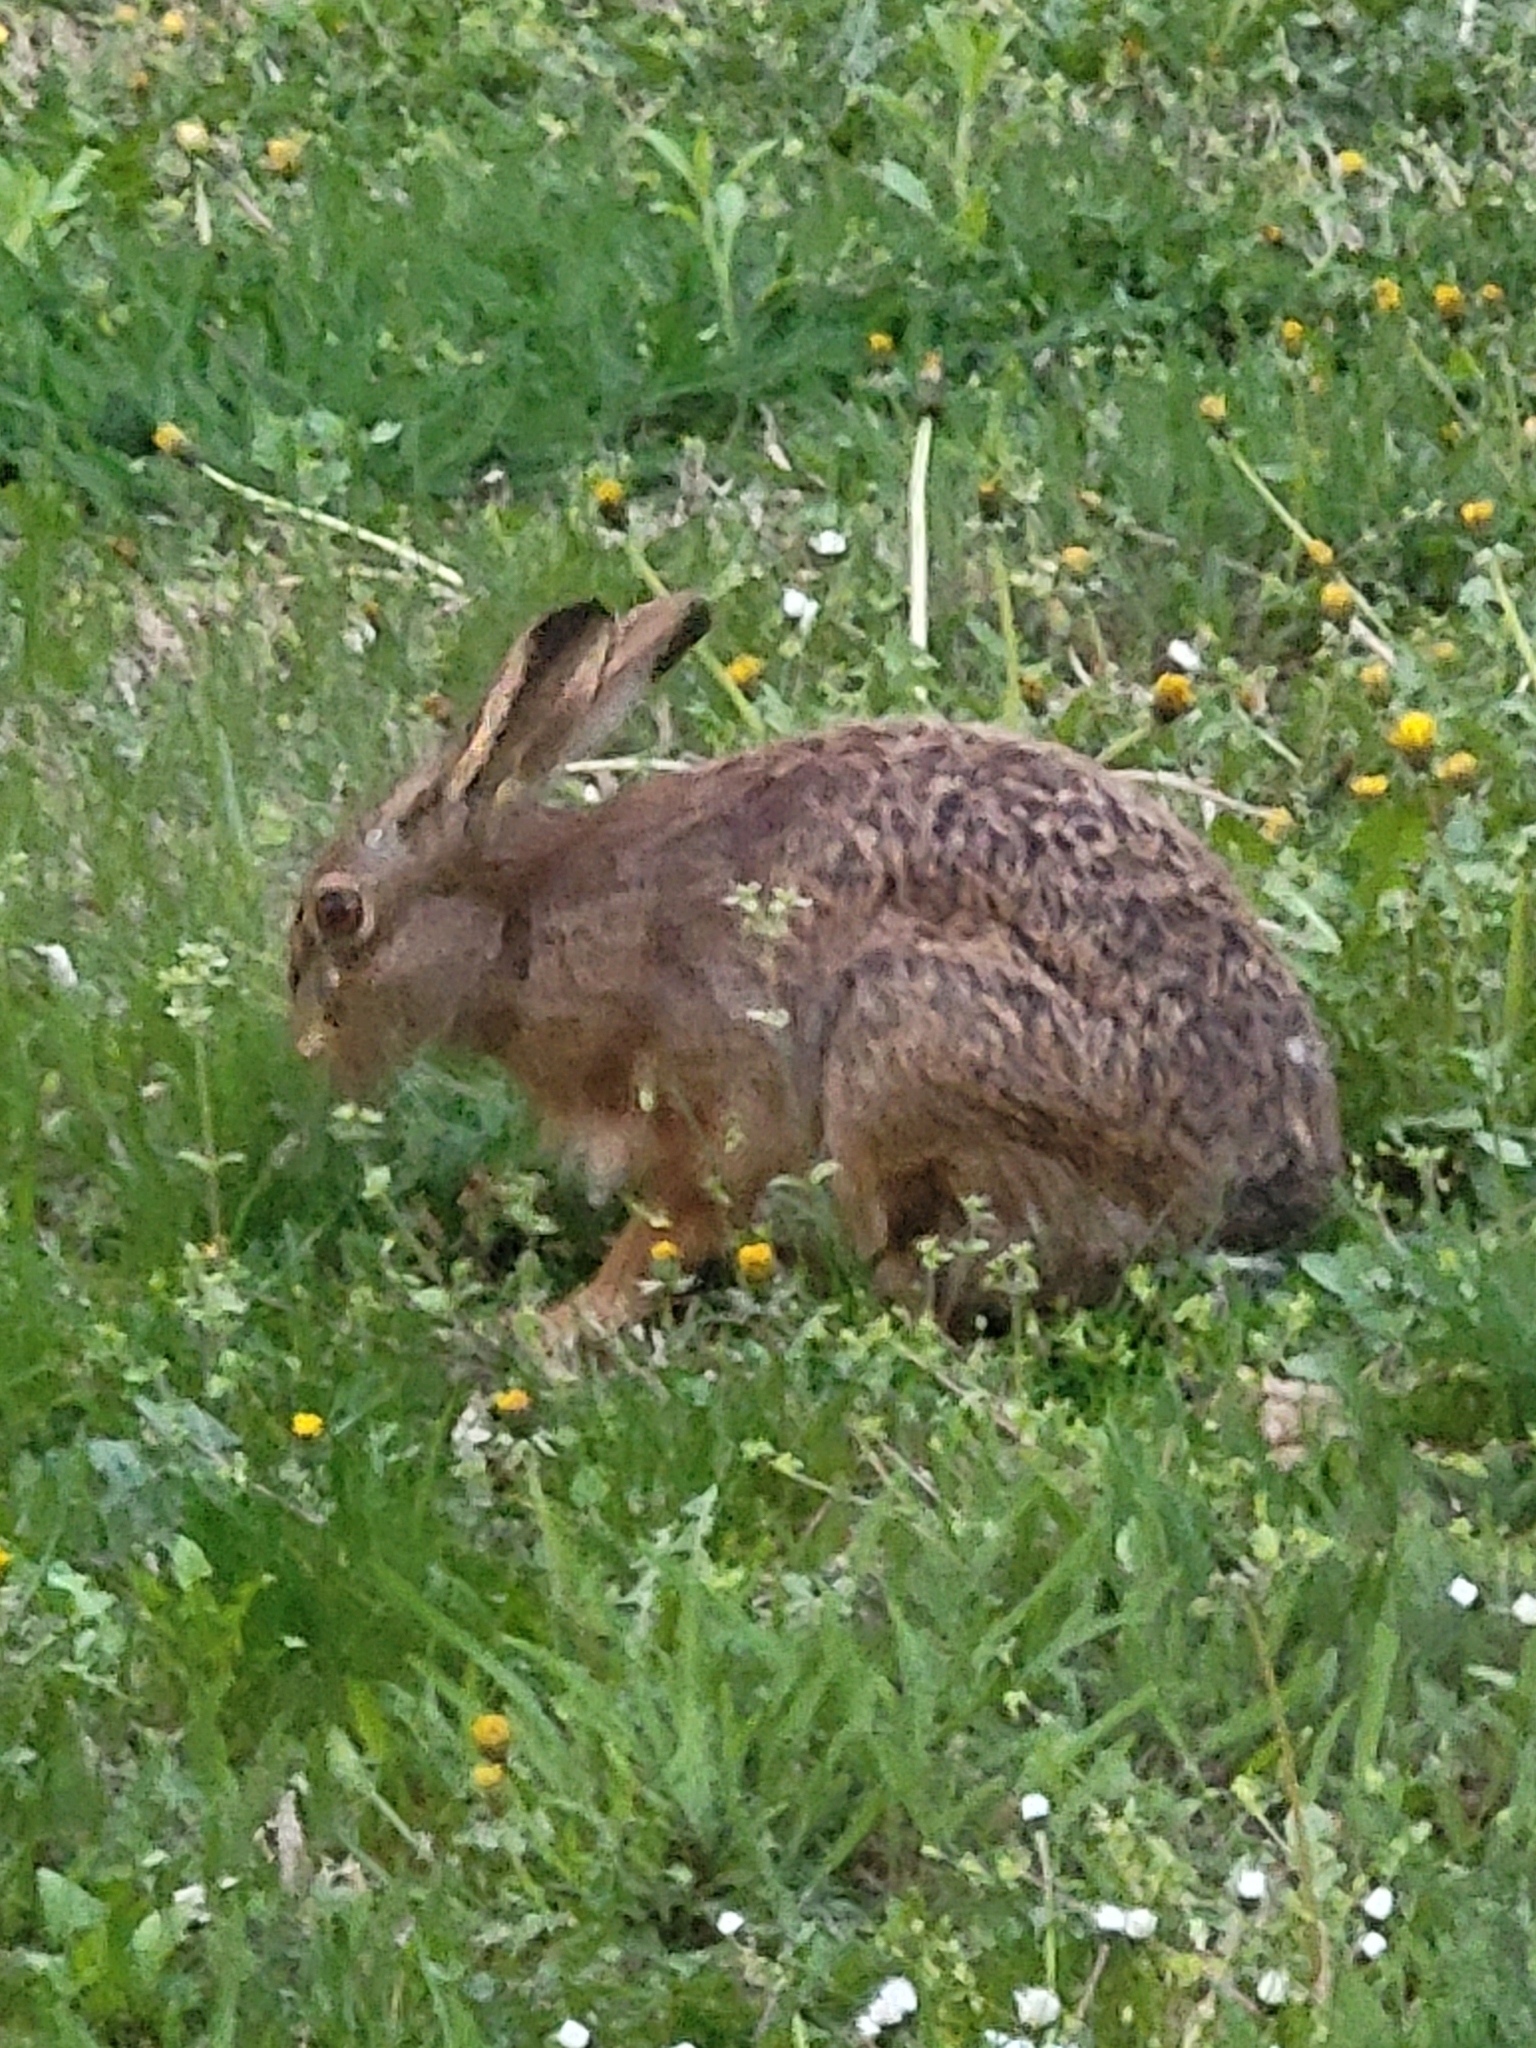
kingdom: Animalia
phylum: Chordata
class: Mammalia
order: Lagomorpha
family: Leporidae
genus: Lepus
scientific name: Lepus europaeus
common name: European hare
